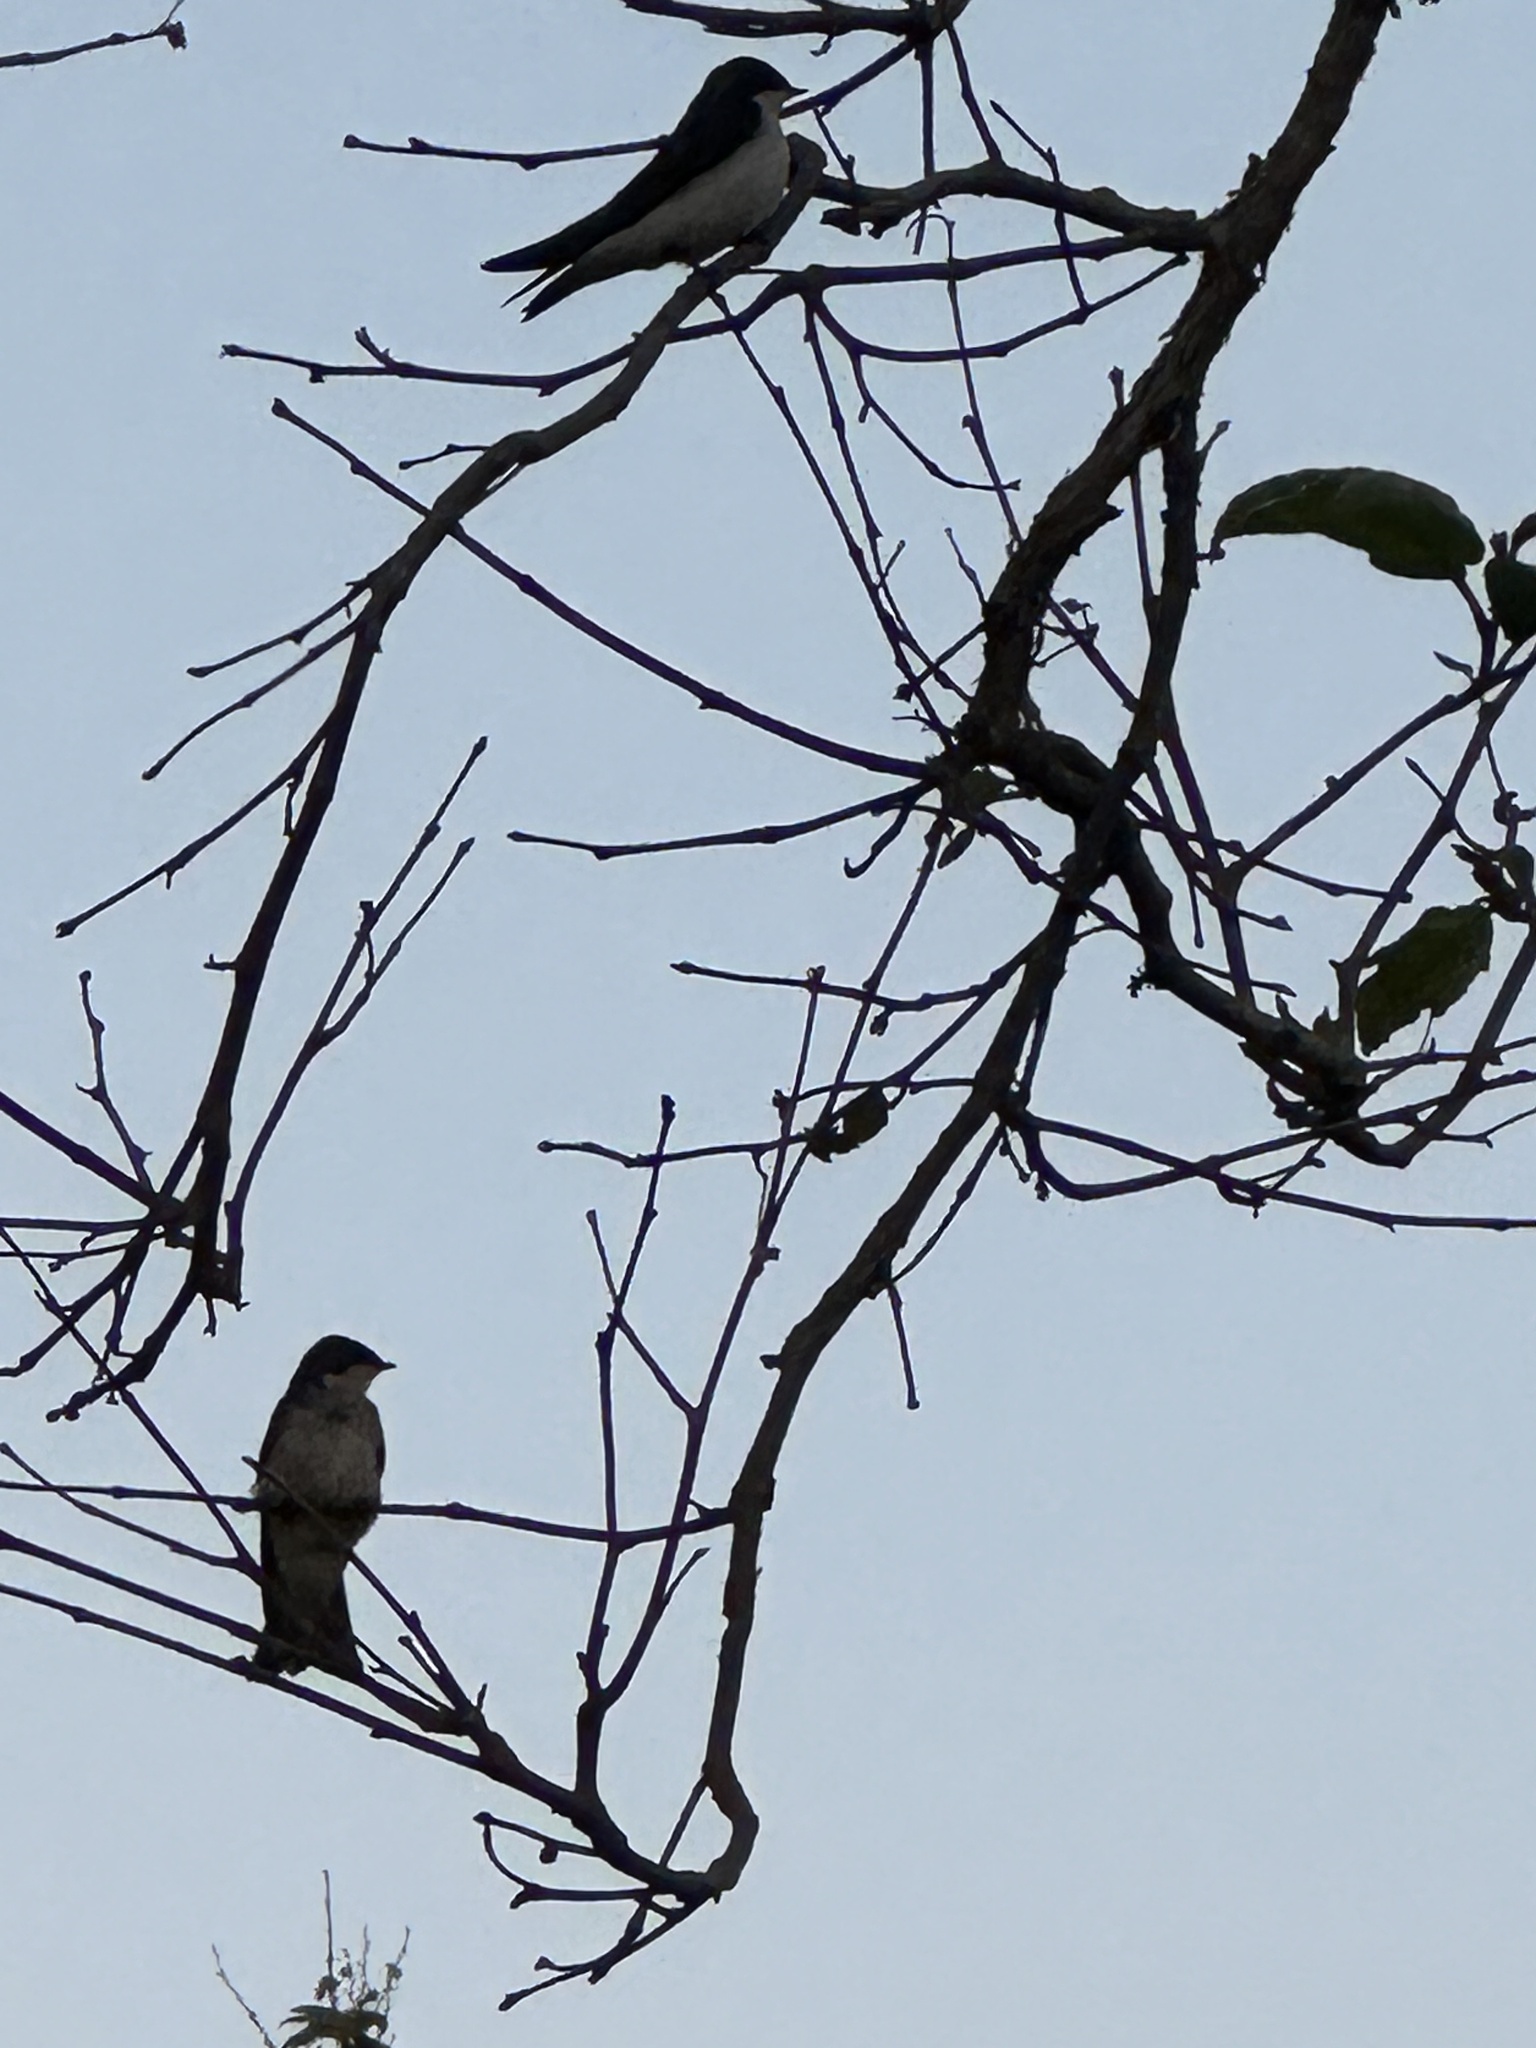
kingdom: Animalia
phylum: Chordata
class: Aves
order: Passeriformes
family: Hirundinidae
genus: Tachycineta
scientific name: Tachycineta bicolor
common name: Tree swallow
